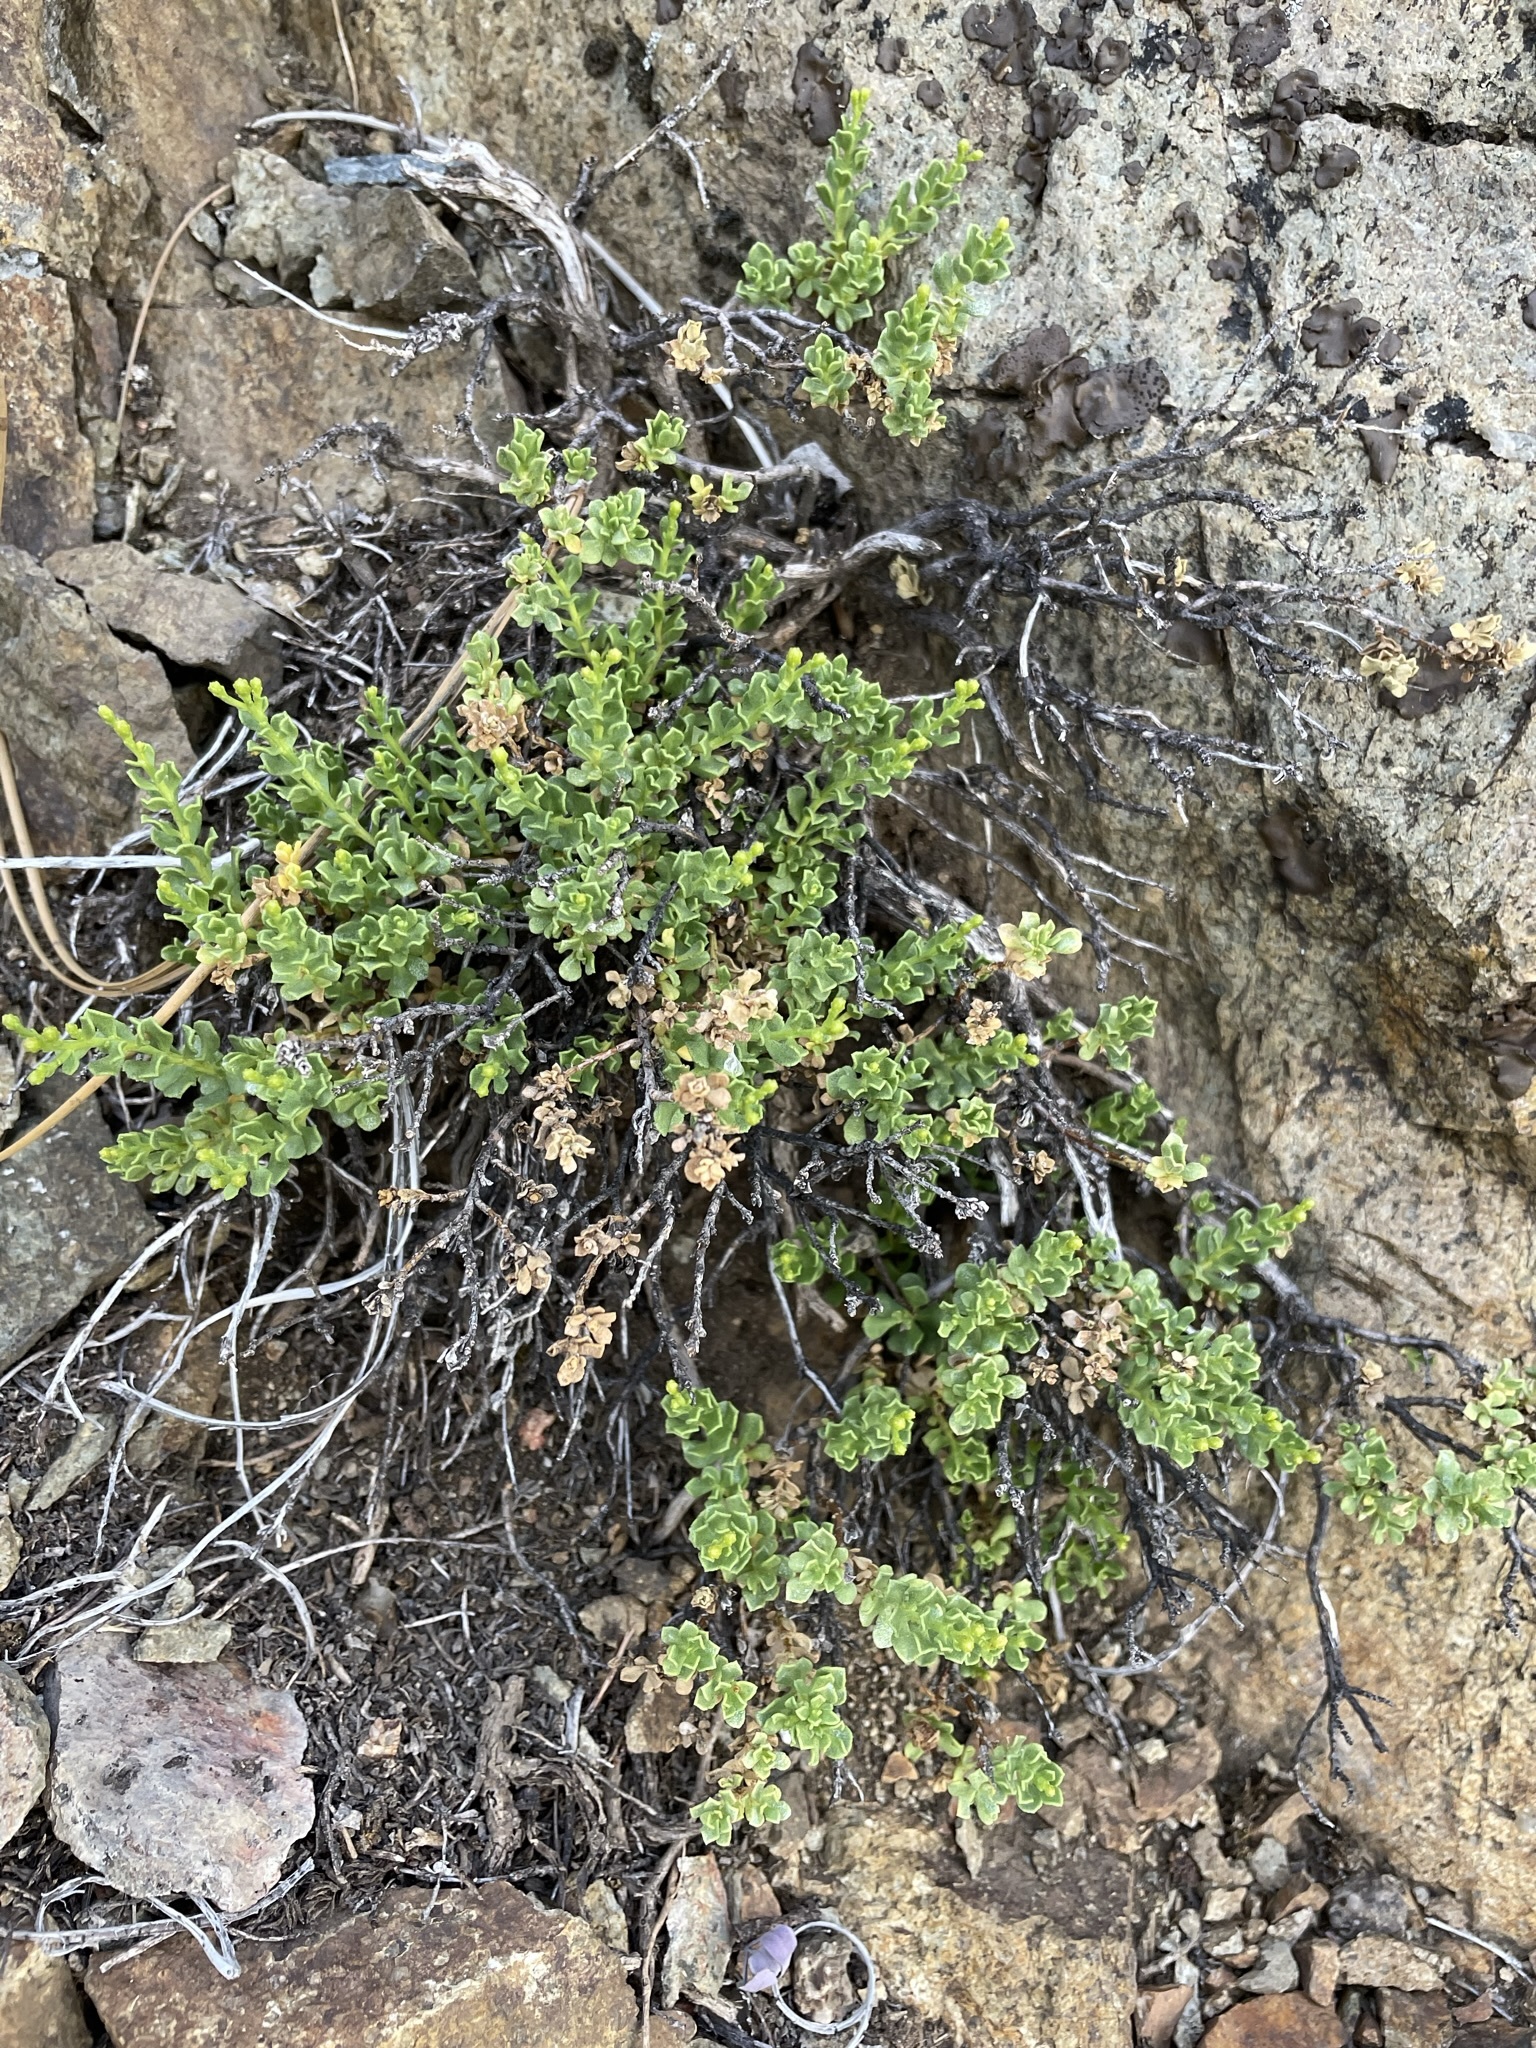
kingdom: Plantae
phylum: Tracheophyta
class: Magnoliopsida
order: Asterales
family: Asteraceae
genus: Ericameria
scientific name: Ericameria cuneata
